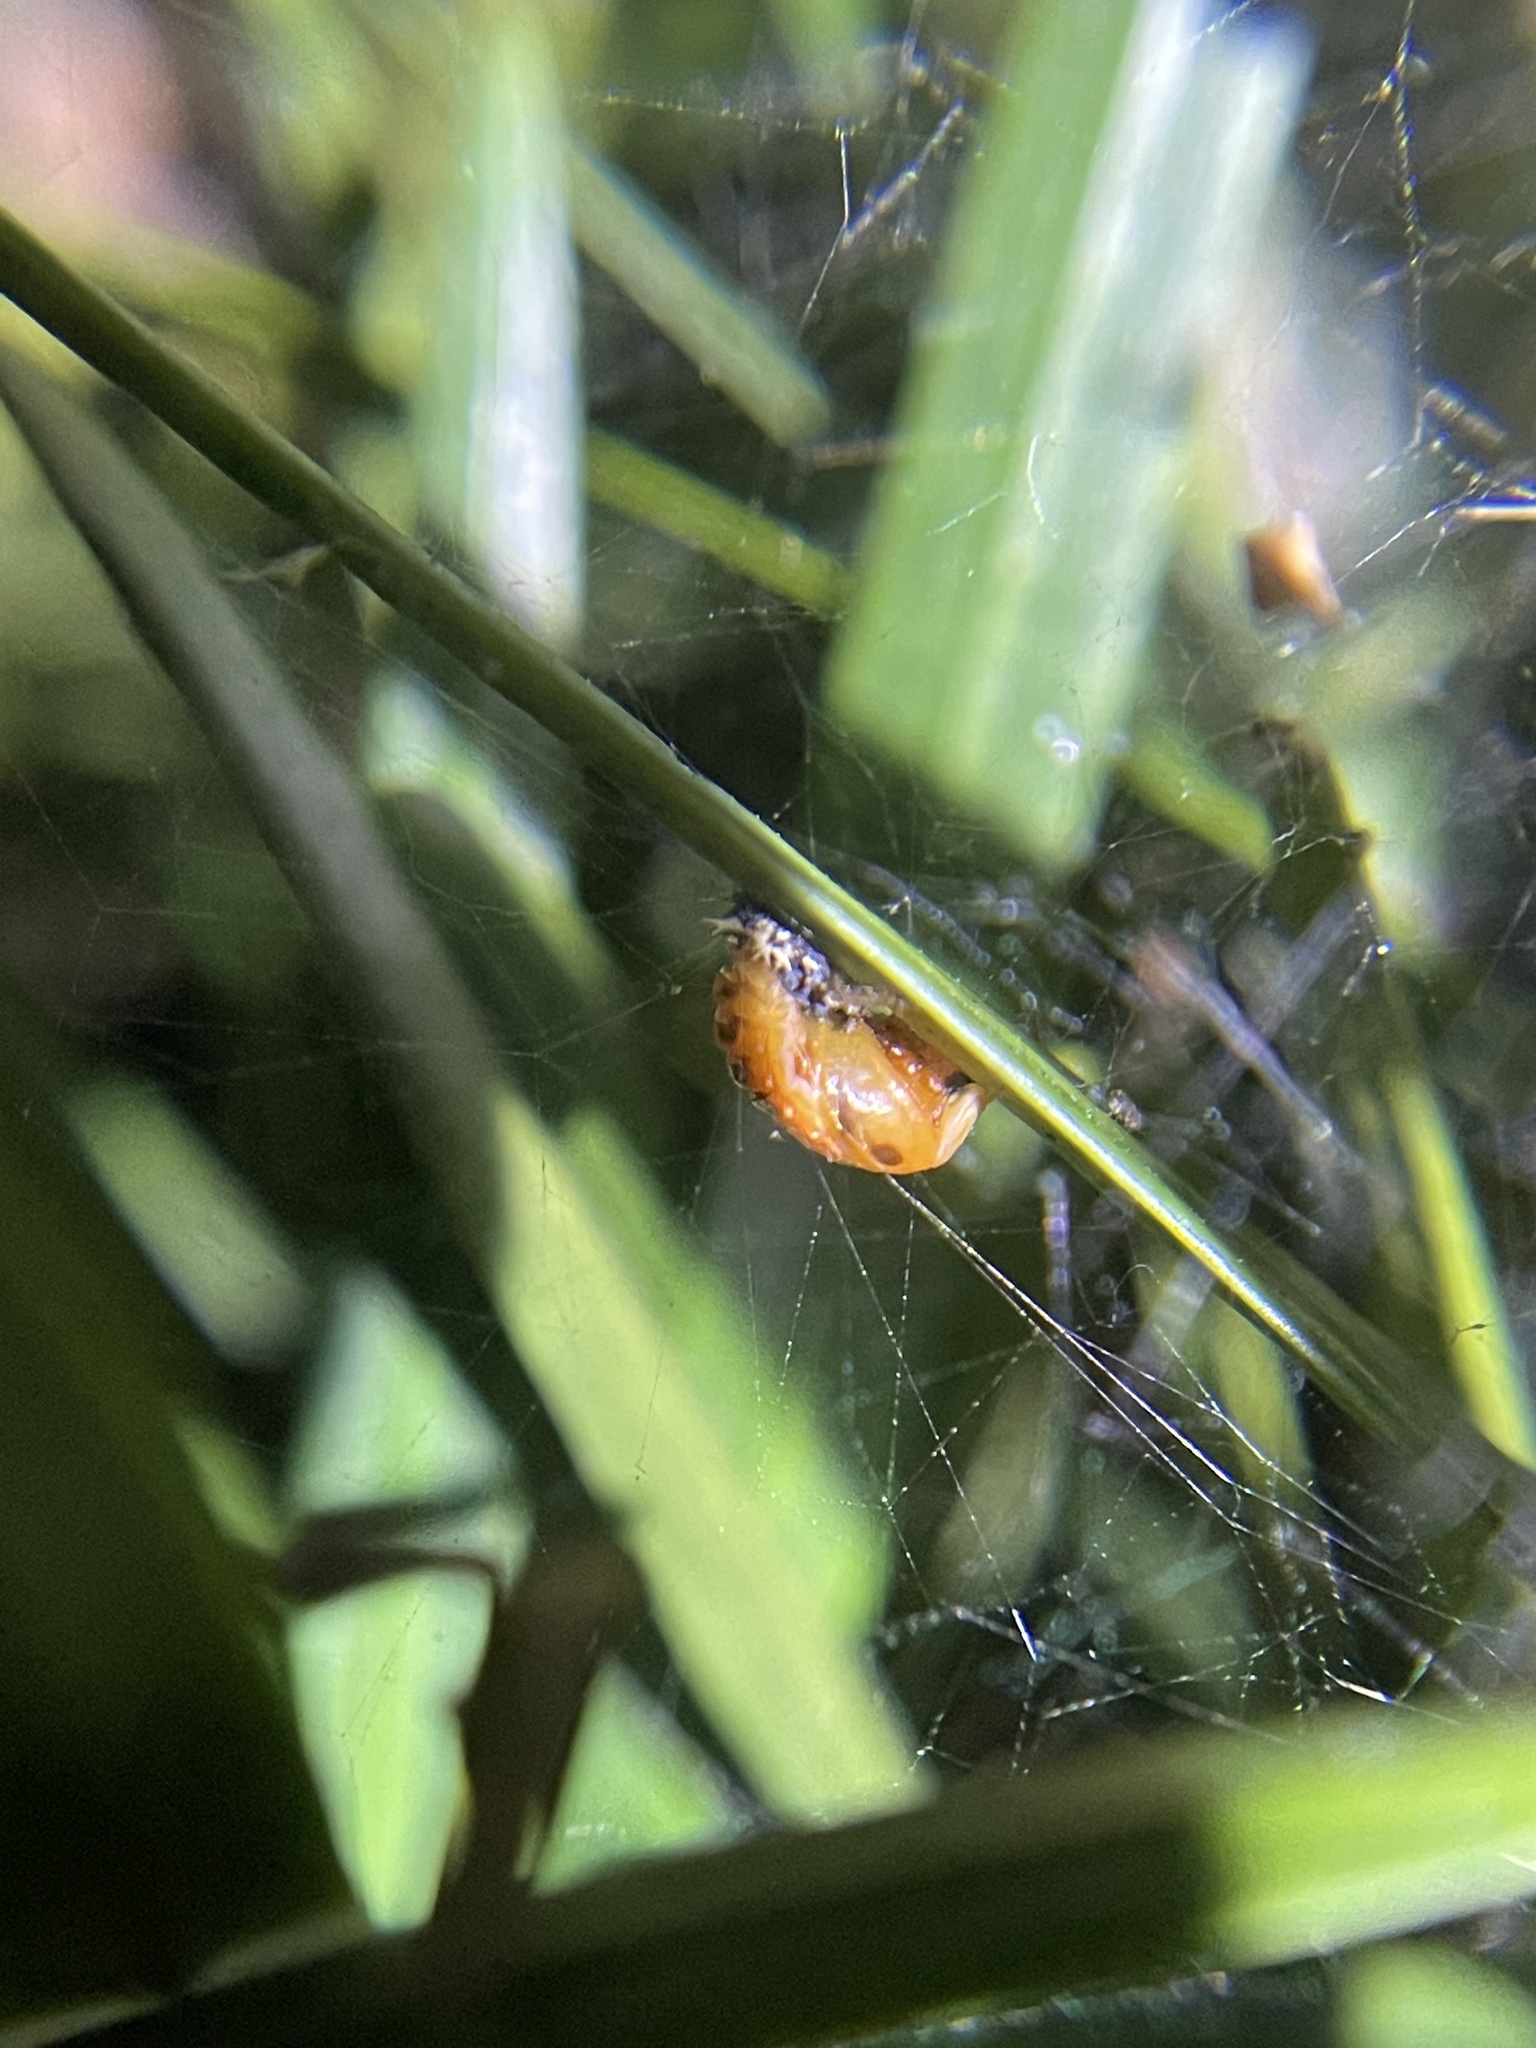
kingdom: Animalia
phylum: Arthropoda
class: Insecta
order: Coleoptera
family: Coccinellidae
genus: Harmonia
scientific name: Harmonia axyridis
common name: Harlequin ladybird
